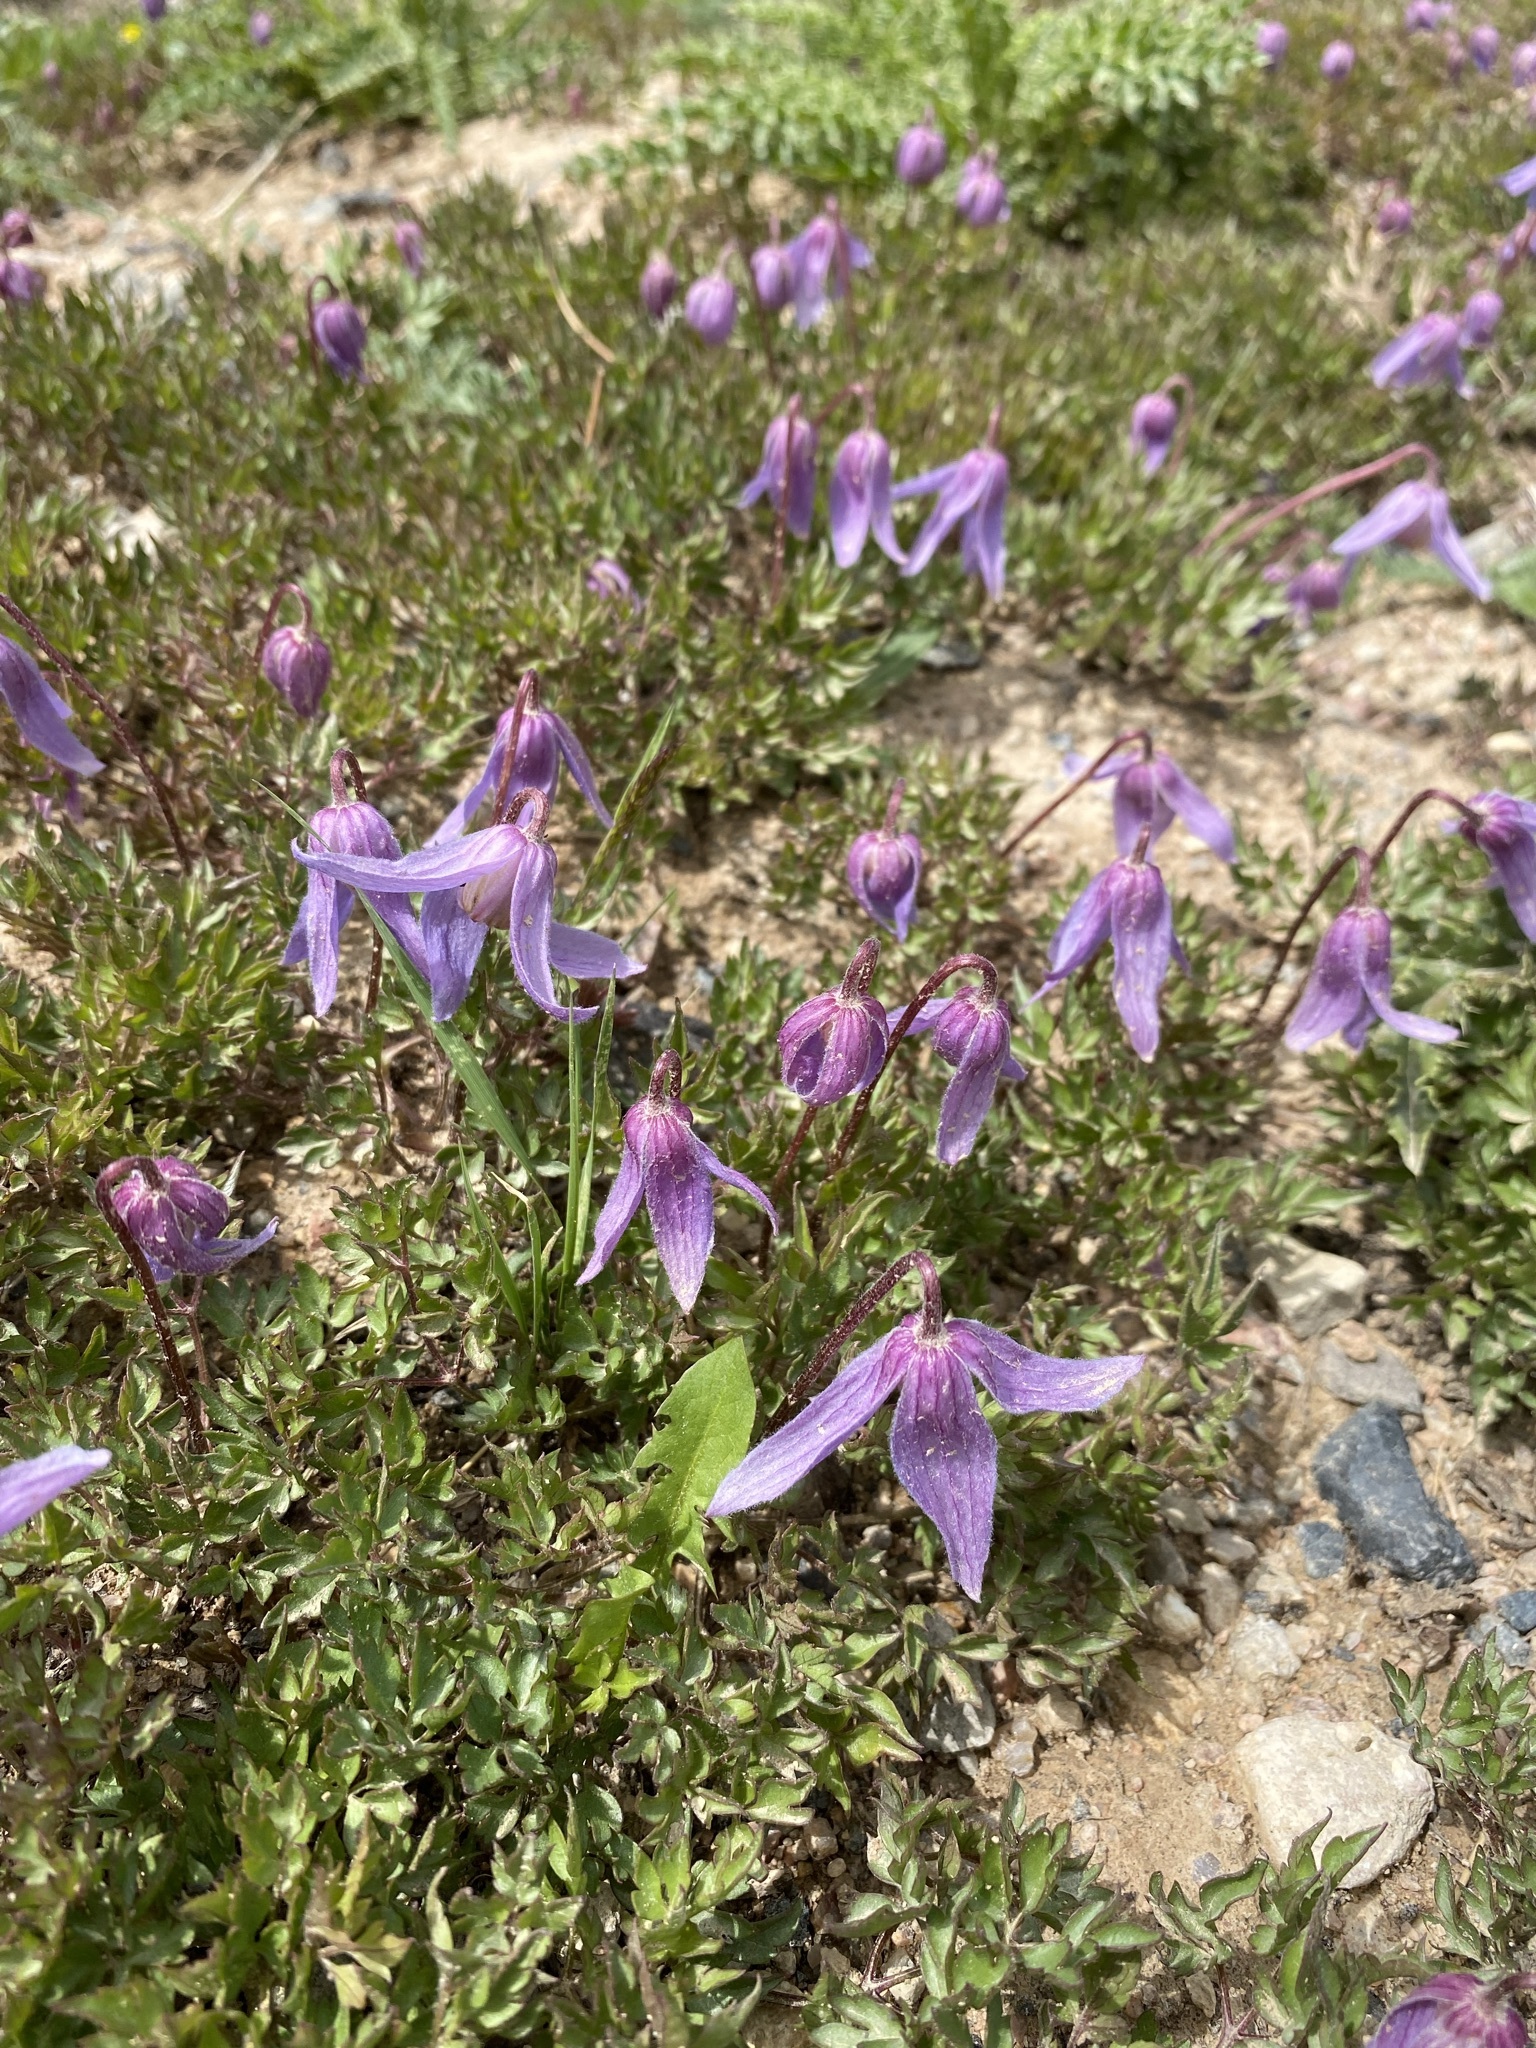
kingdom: Plantae
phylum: Tracheophyta
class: Magnoliopsida
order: Ranunculales
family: Ranunculaceae
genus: Clematis
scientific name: Clematis columbiana
